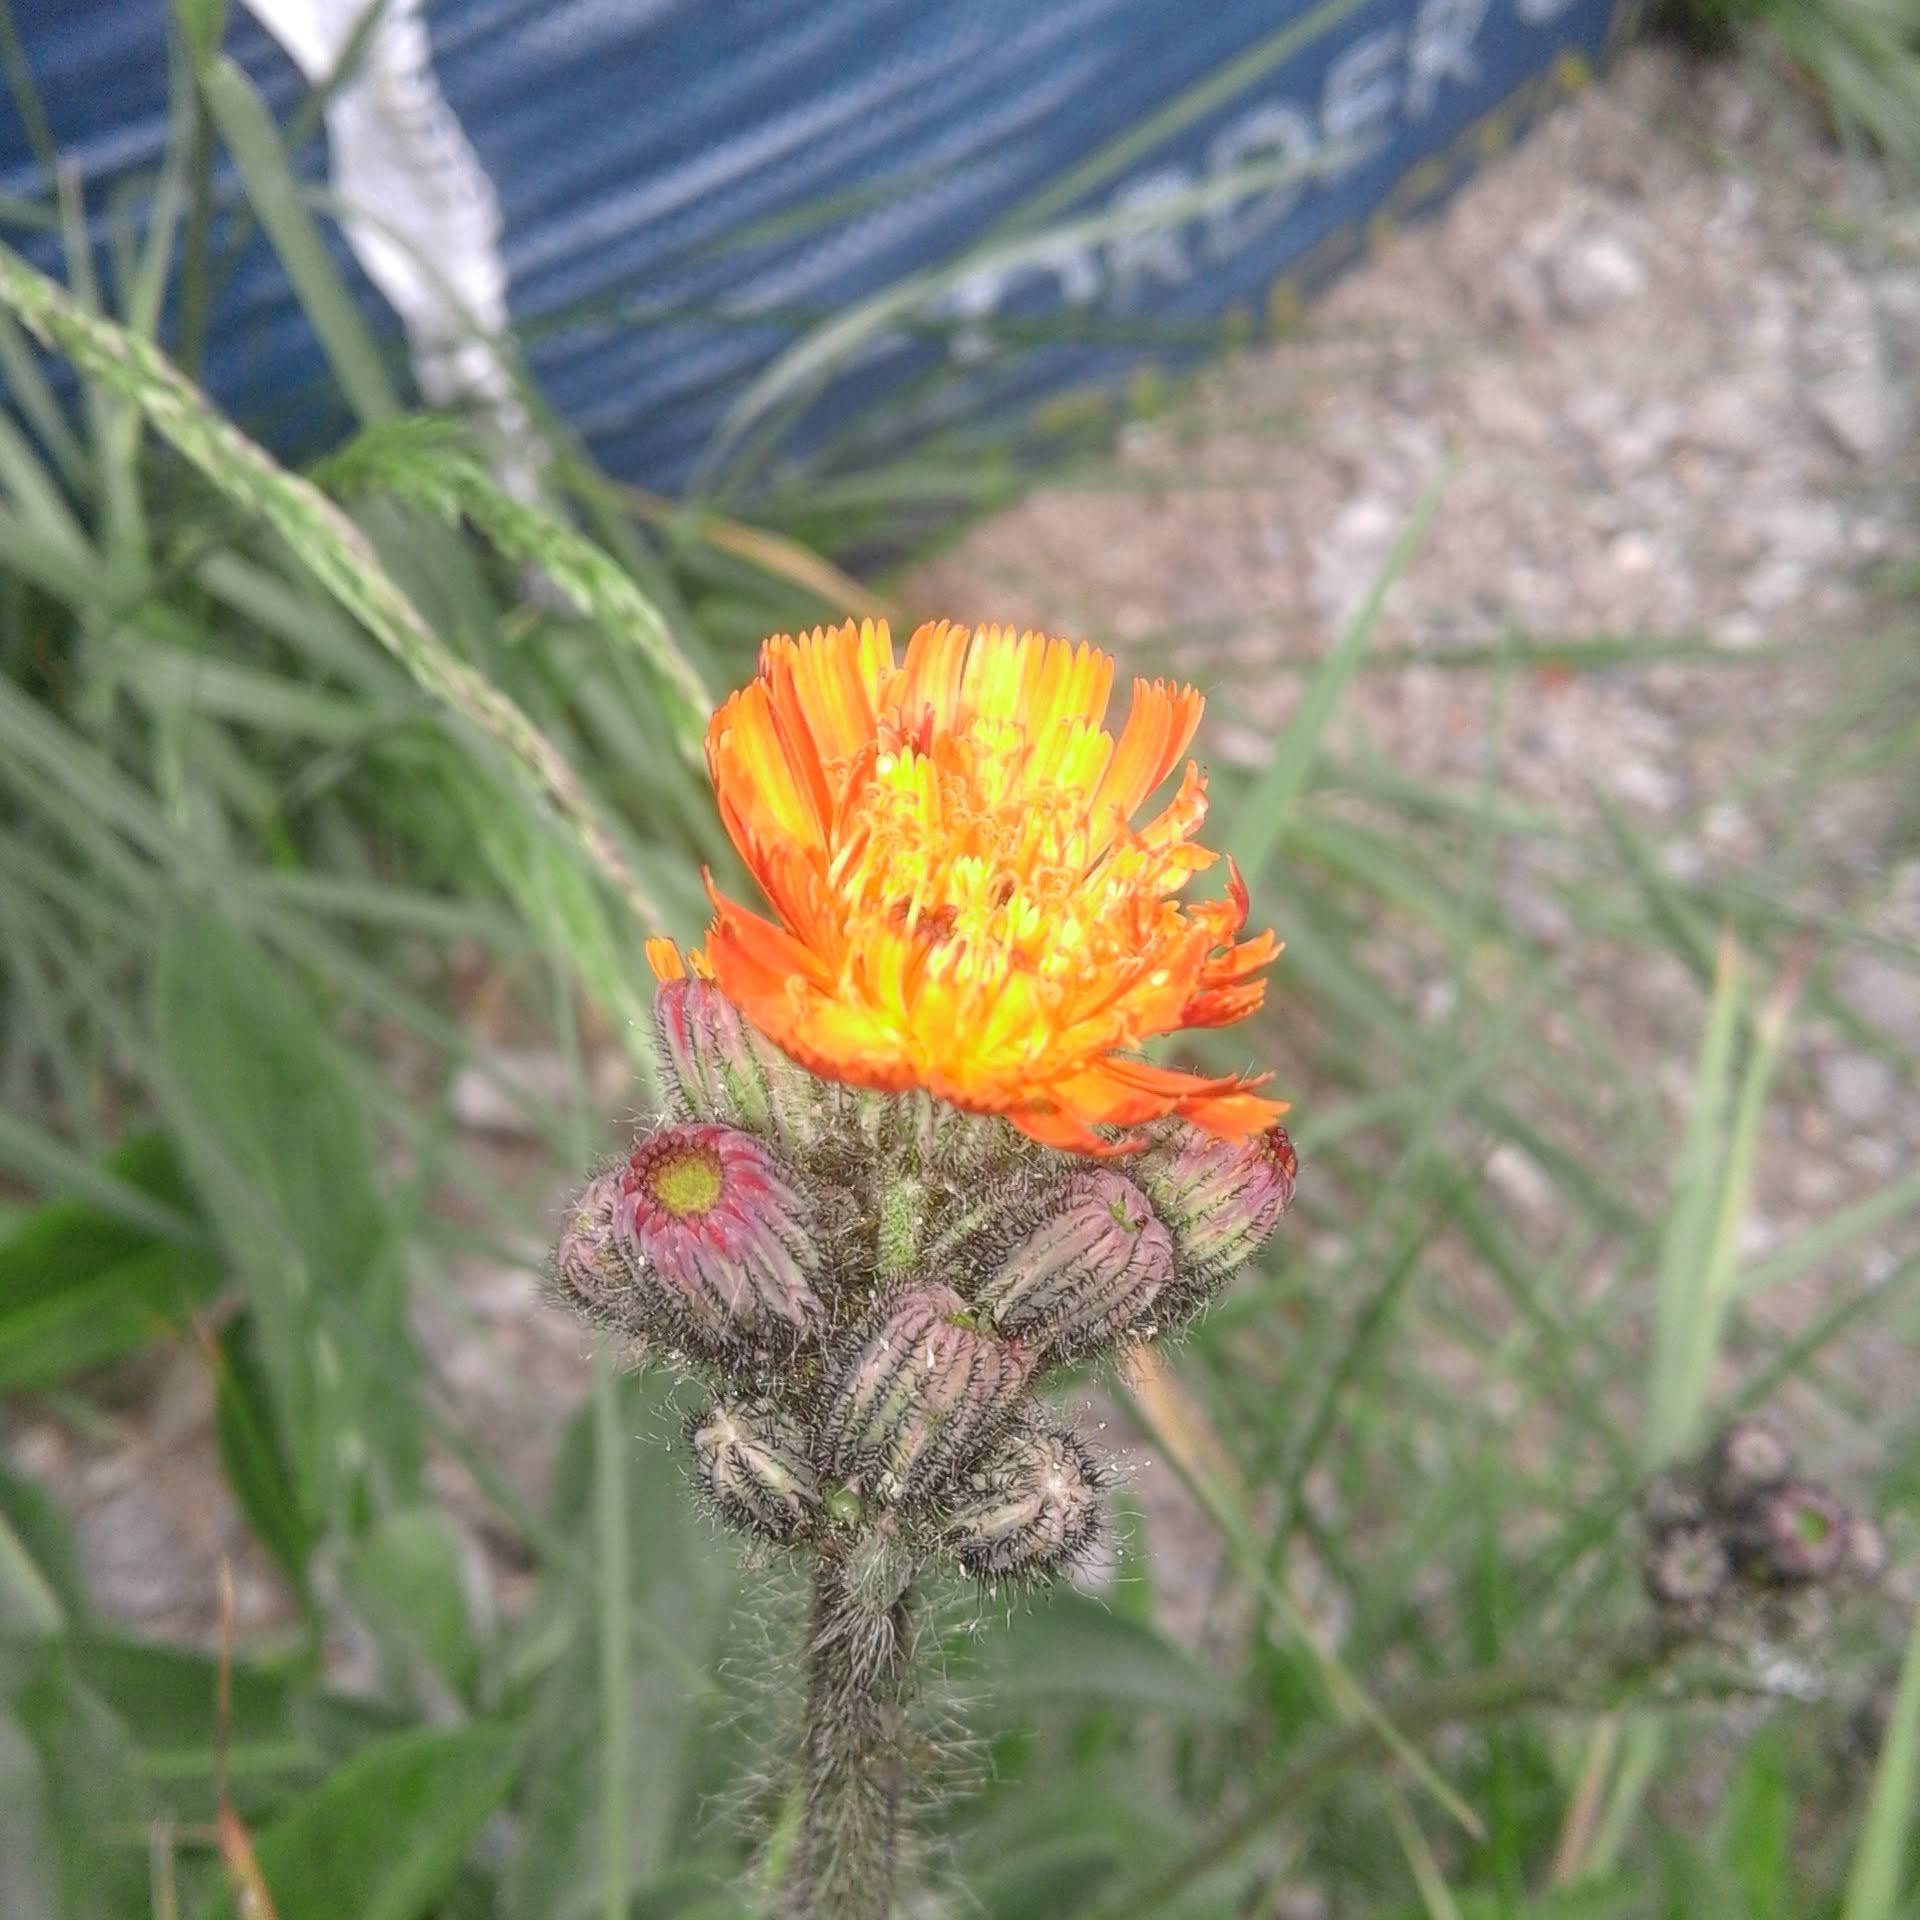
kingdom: Plantae
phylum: Tracheophyta
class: Magnoliopsida
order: Asterales
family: Asteraceae
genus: Pilosella
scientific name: Pilosella aurantiaca
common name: Fox-and-cubs
